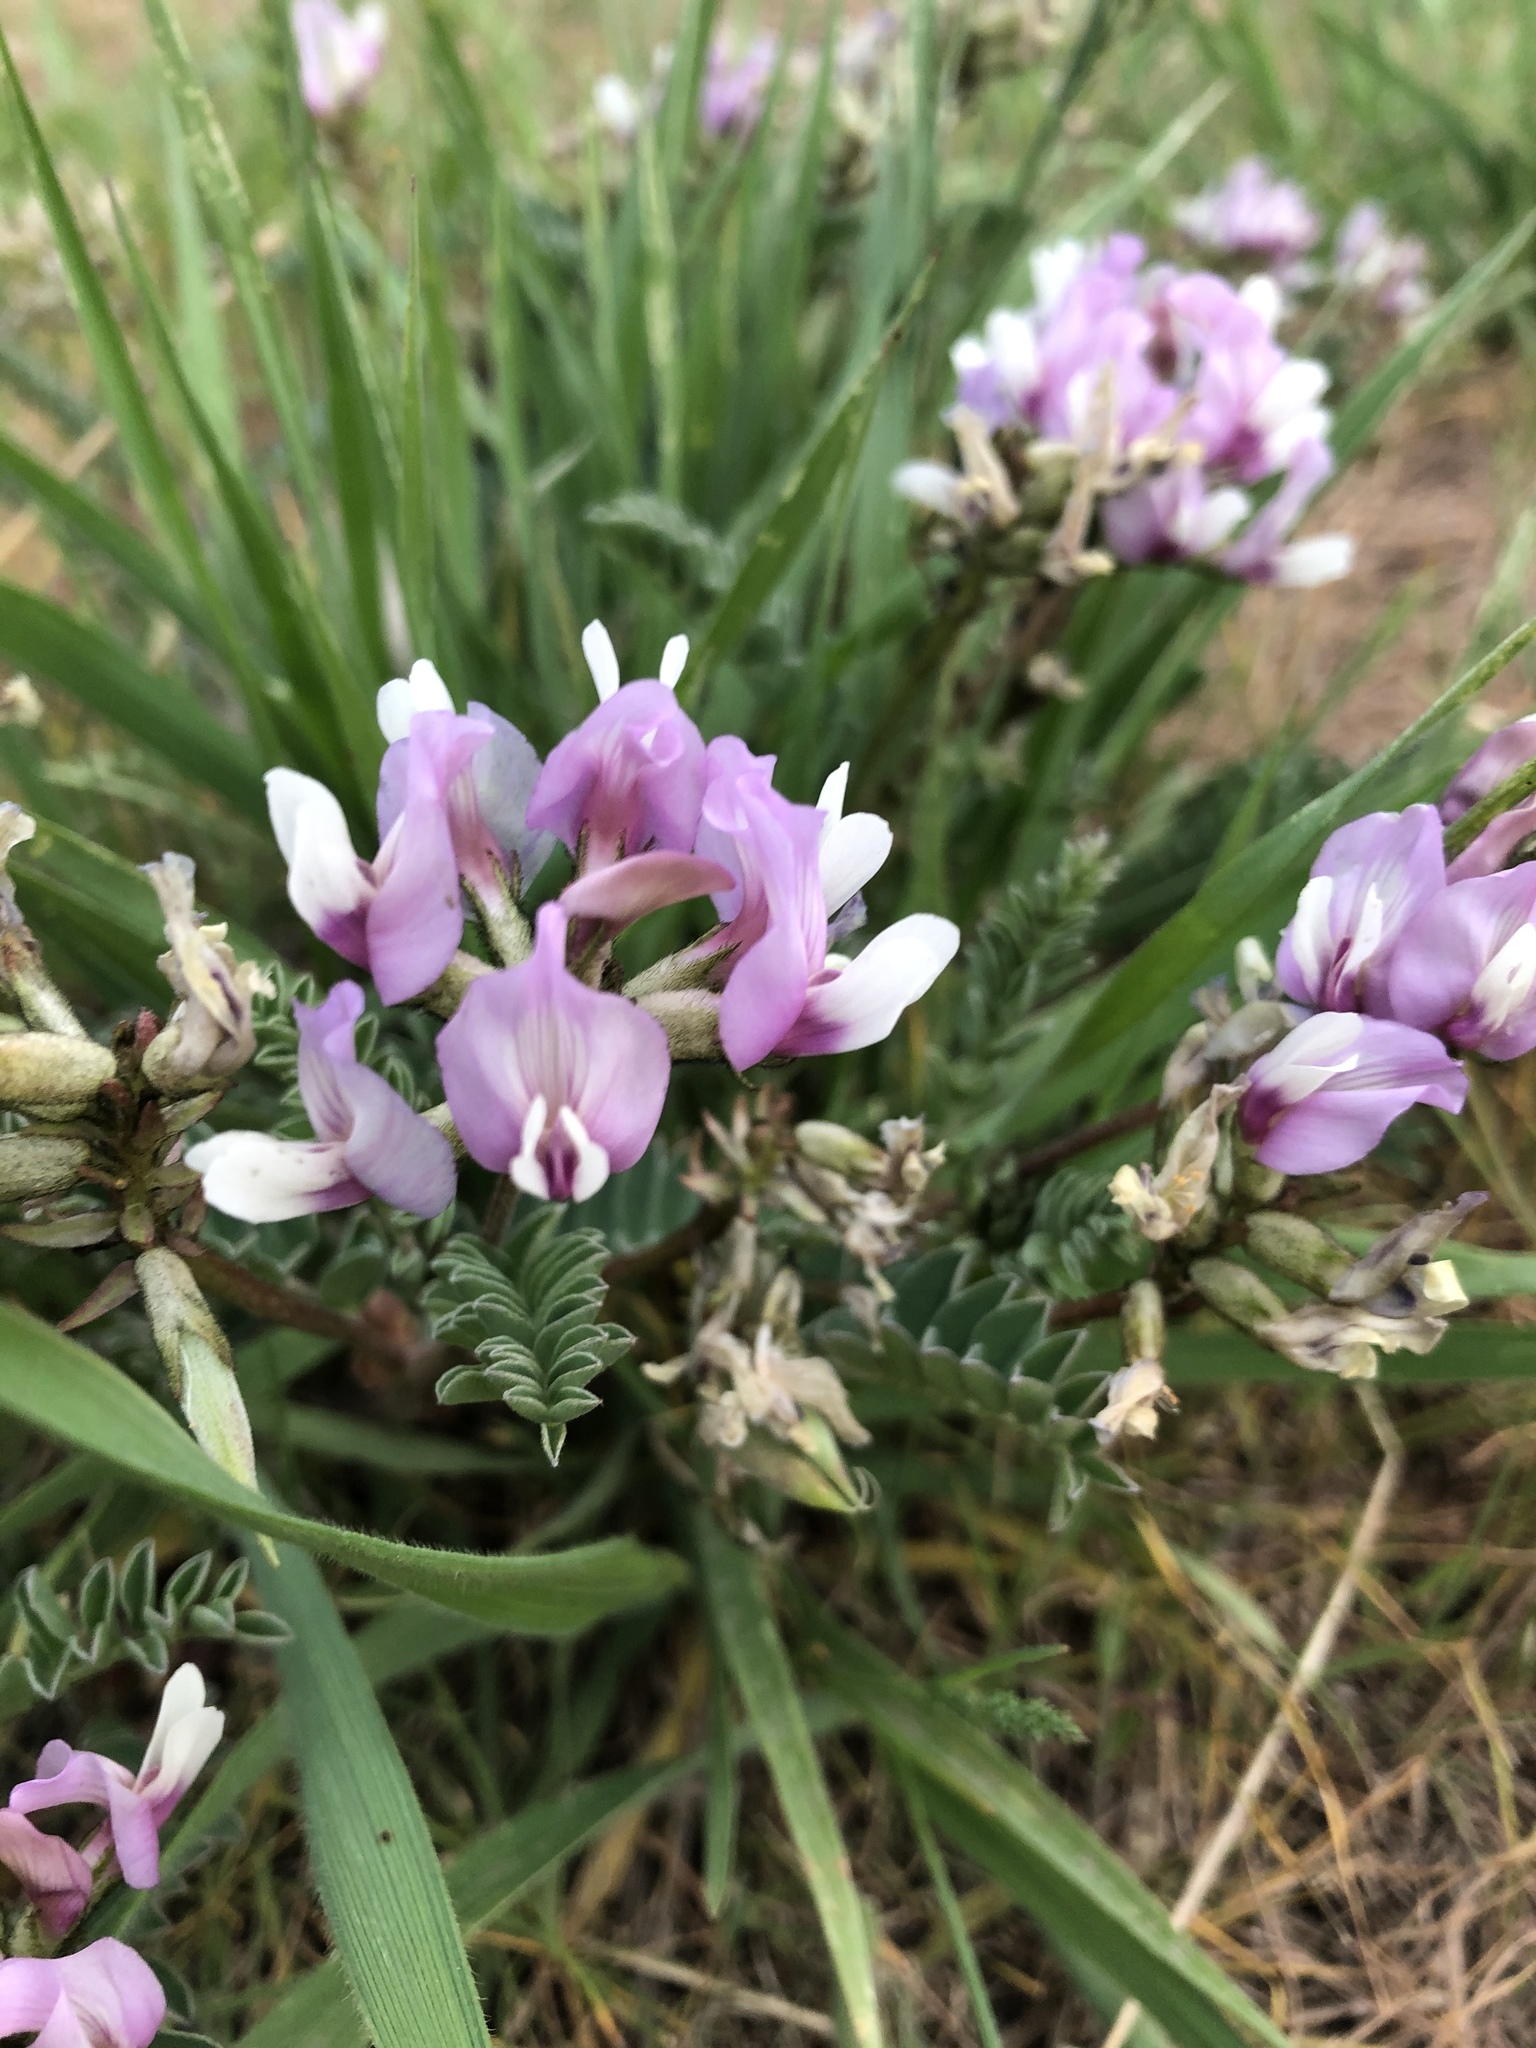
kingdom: Plantae
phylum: Tracheophyta
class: Magnoliopsida
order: Fabales
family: Fabaceae
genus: Astragalus
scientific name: Astragalus cibarius
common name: Browse milk-vetch
